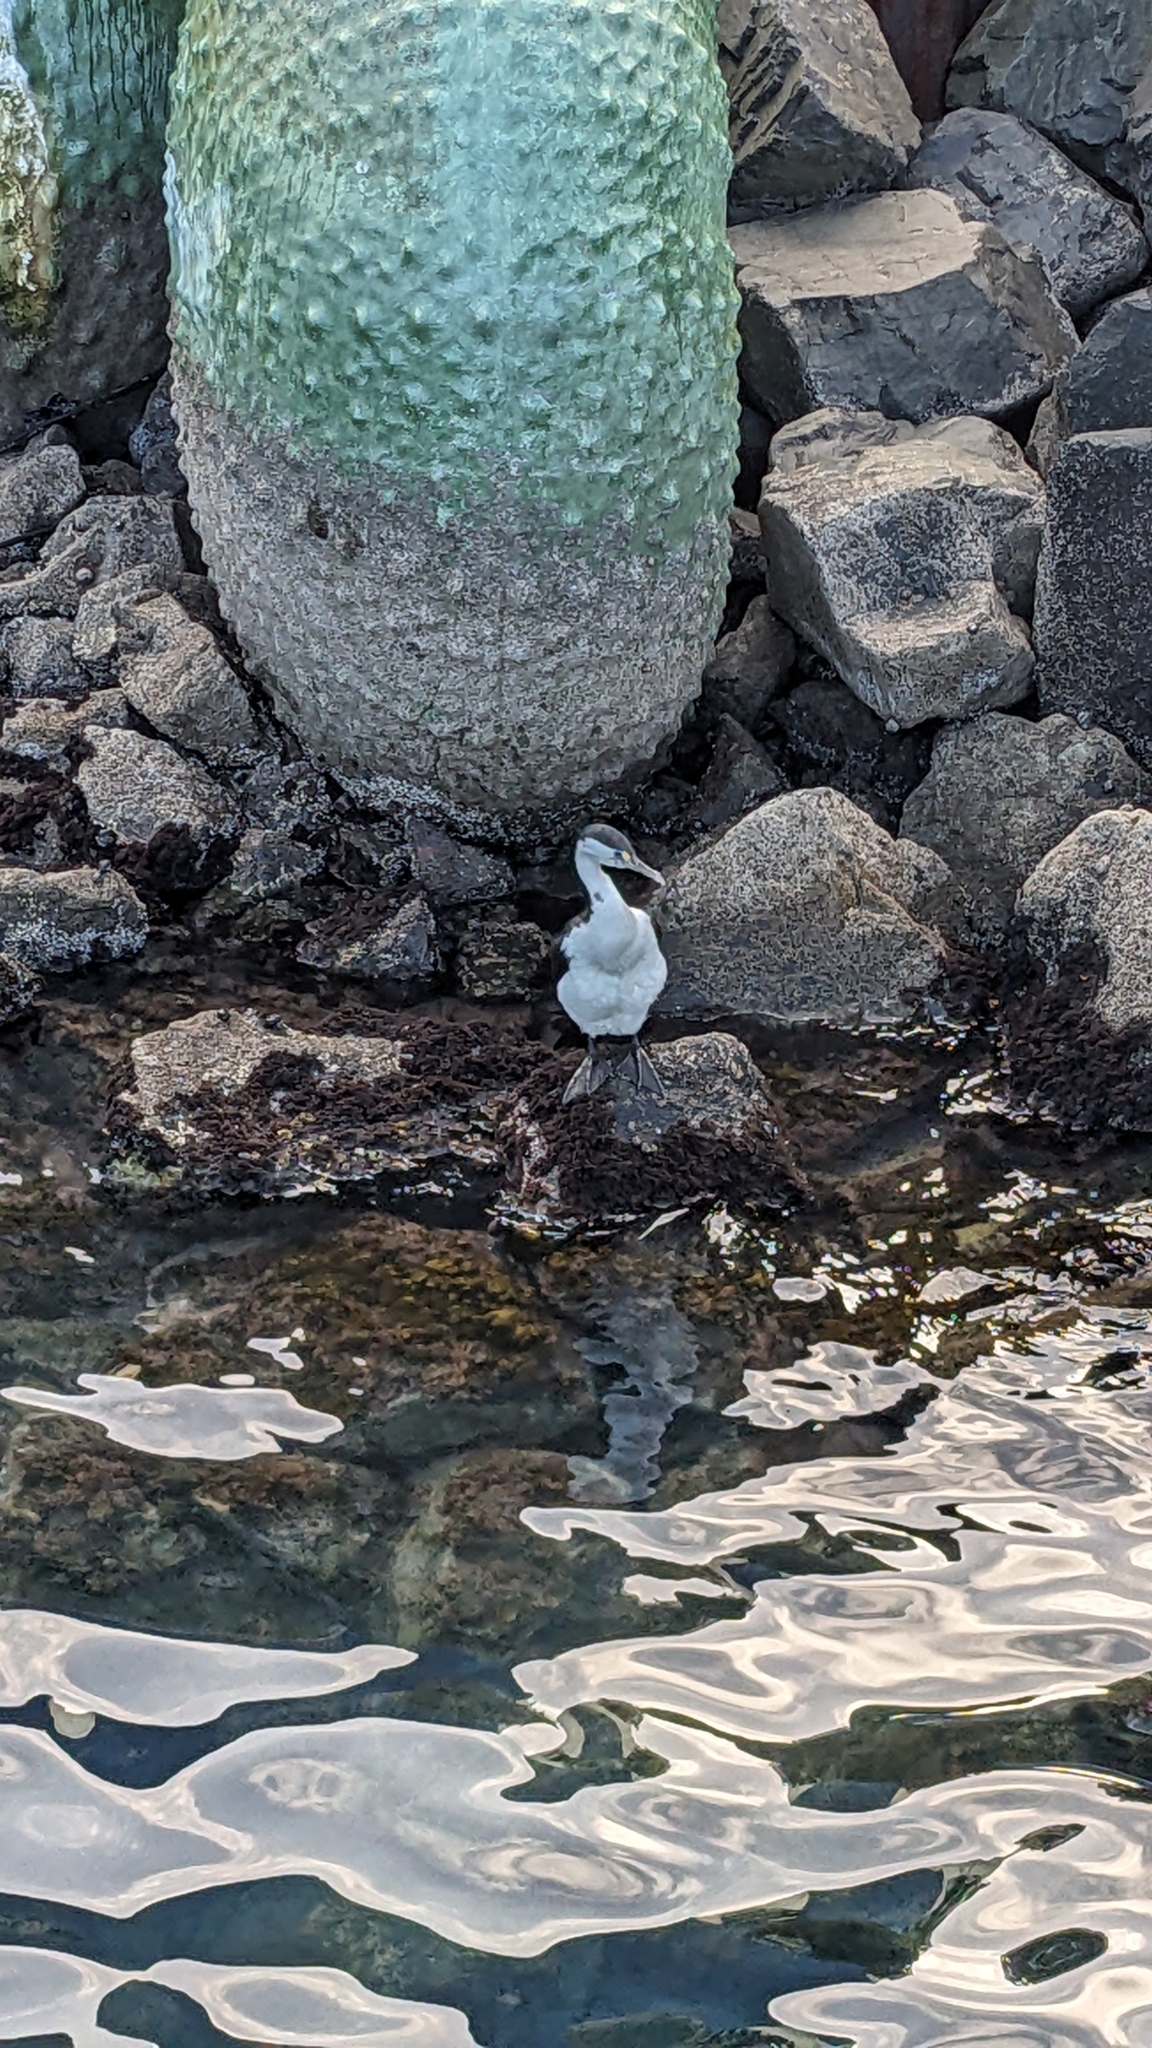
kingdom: Animalia
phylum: Chordata
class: Aves
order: Suliformes
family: Phalacrocoracidae
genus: Phalacrocorax
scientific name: Phalacrocorax varius
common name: Pied cormorant
